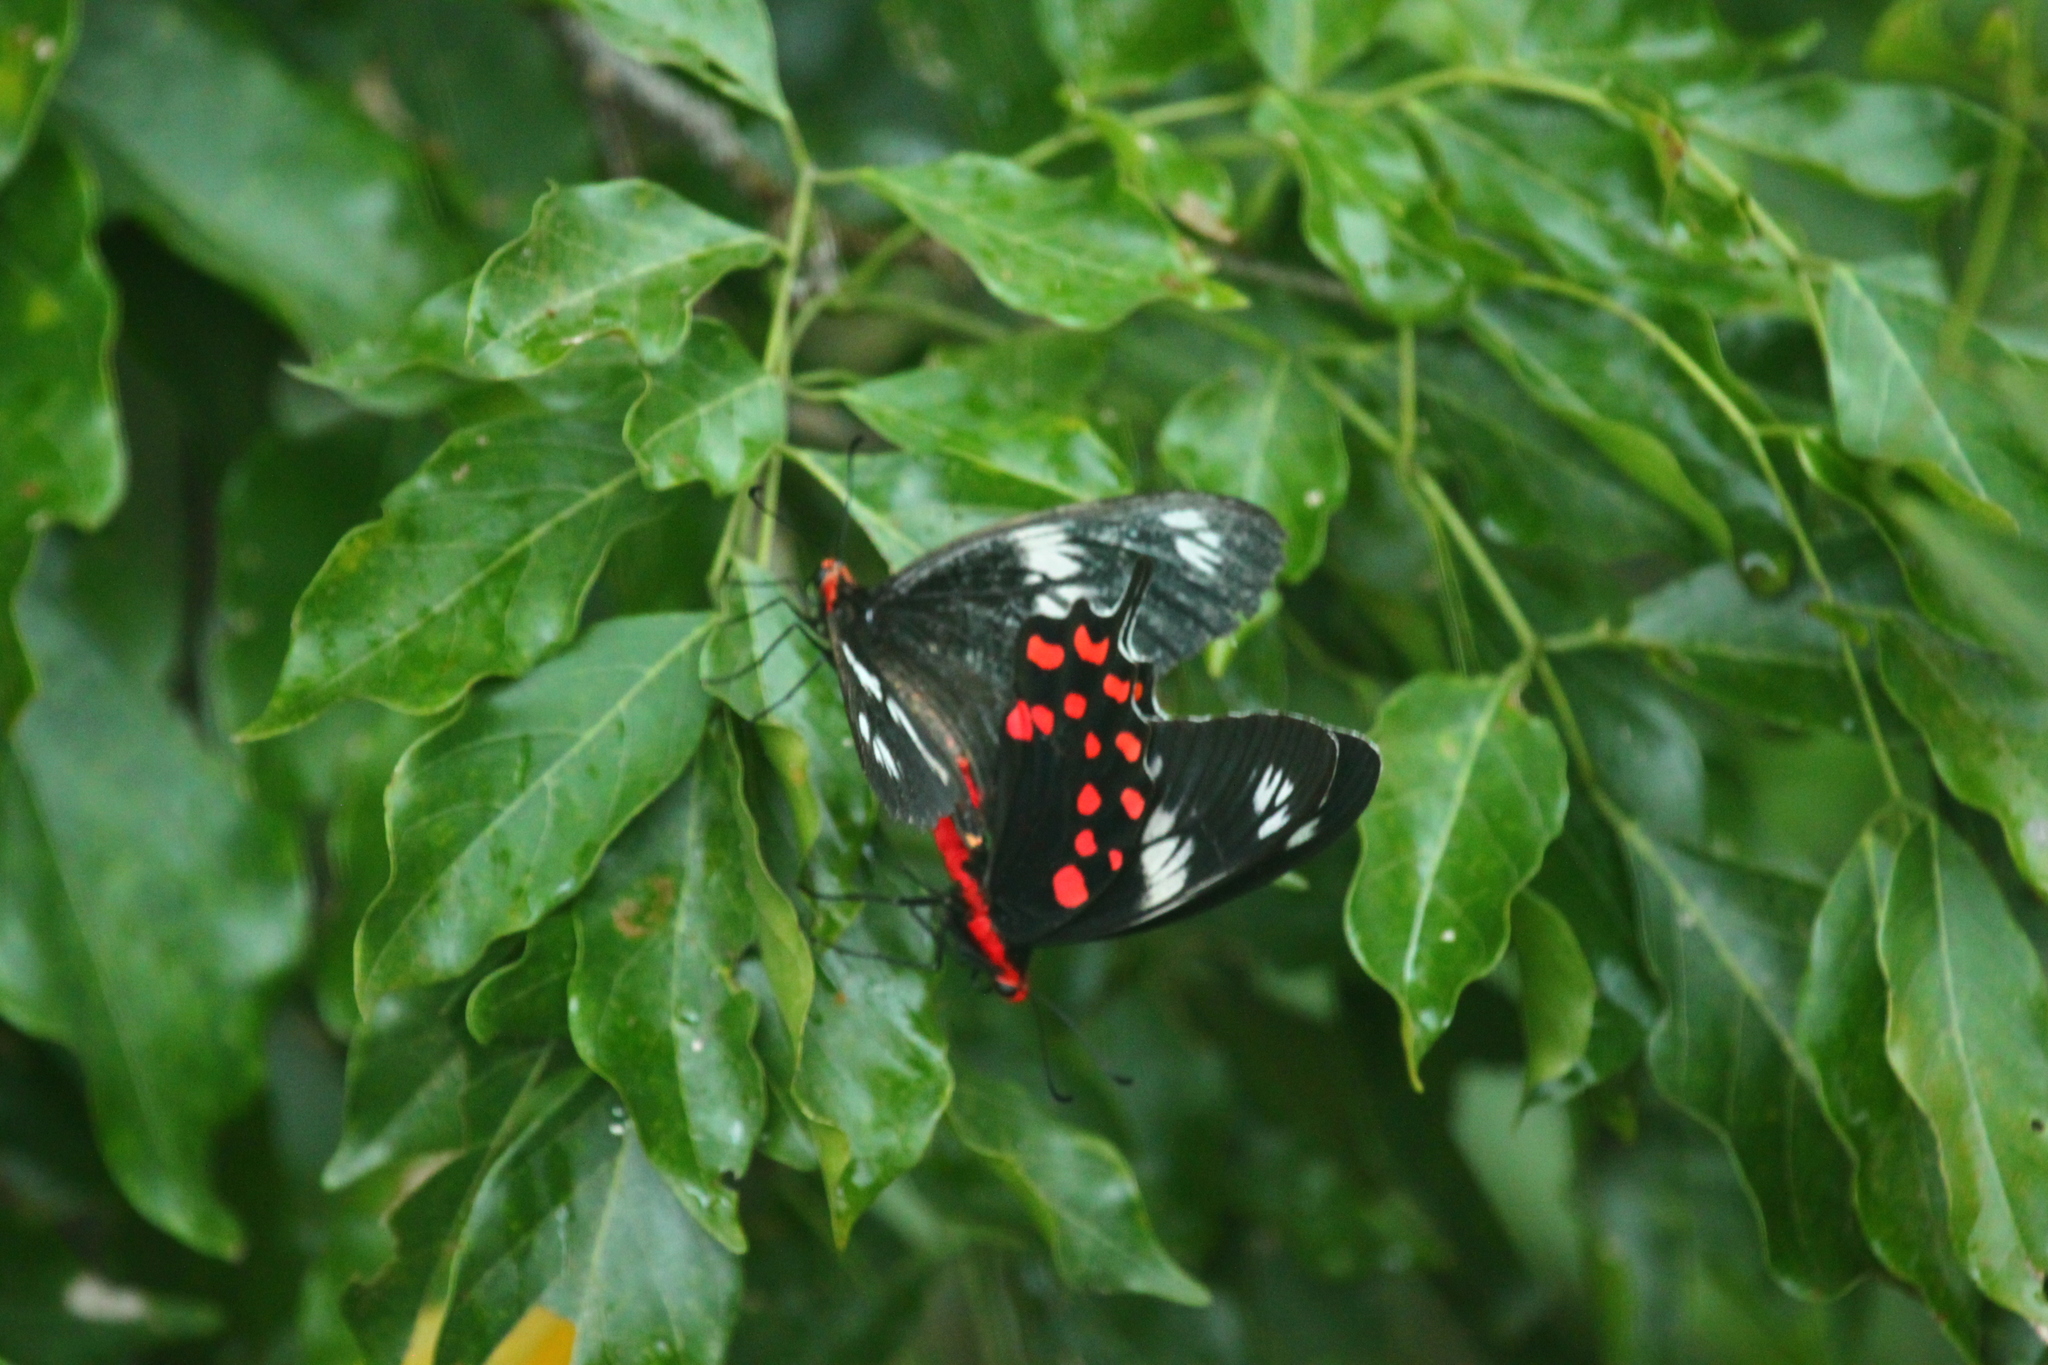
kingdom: Animalia
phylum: Arthropoda
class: Insecta
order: Lepidoptera
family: Papilionidae
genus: Pachliopta
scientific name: Pachliopta hector
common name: Crimson rose
